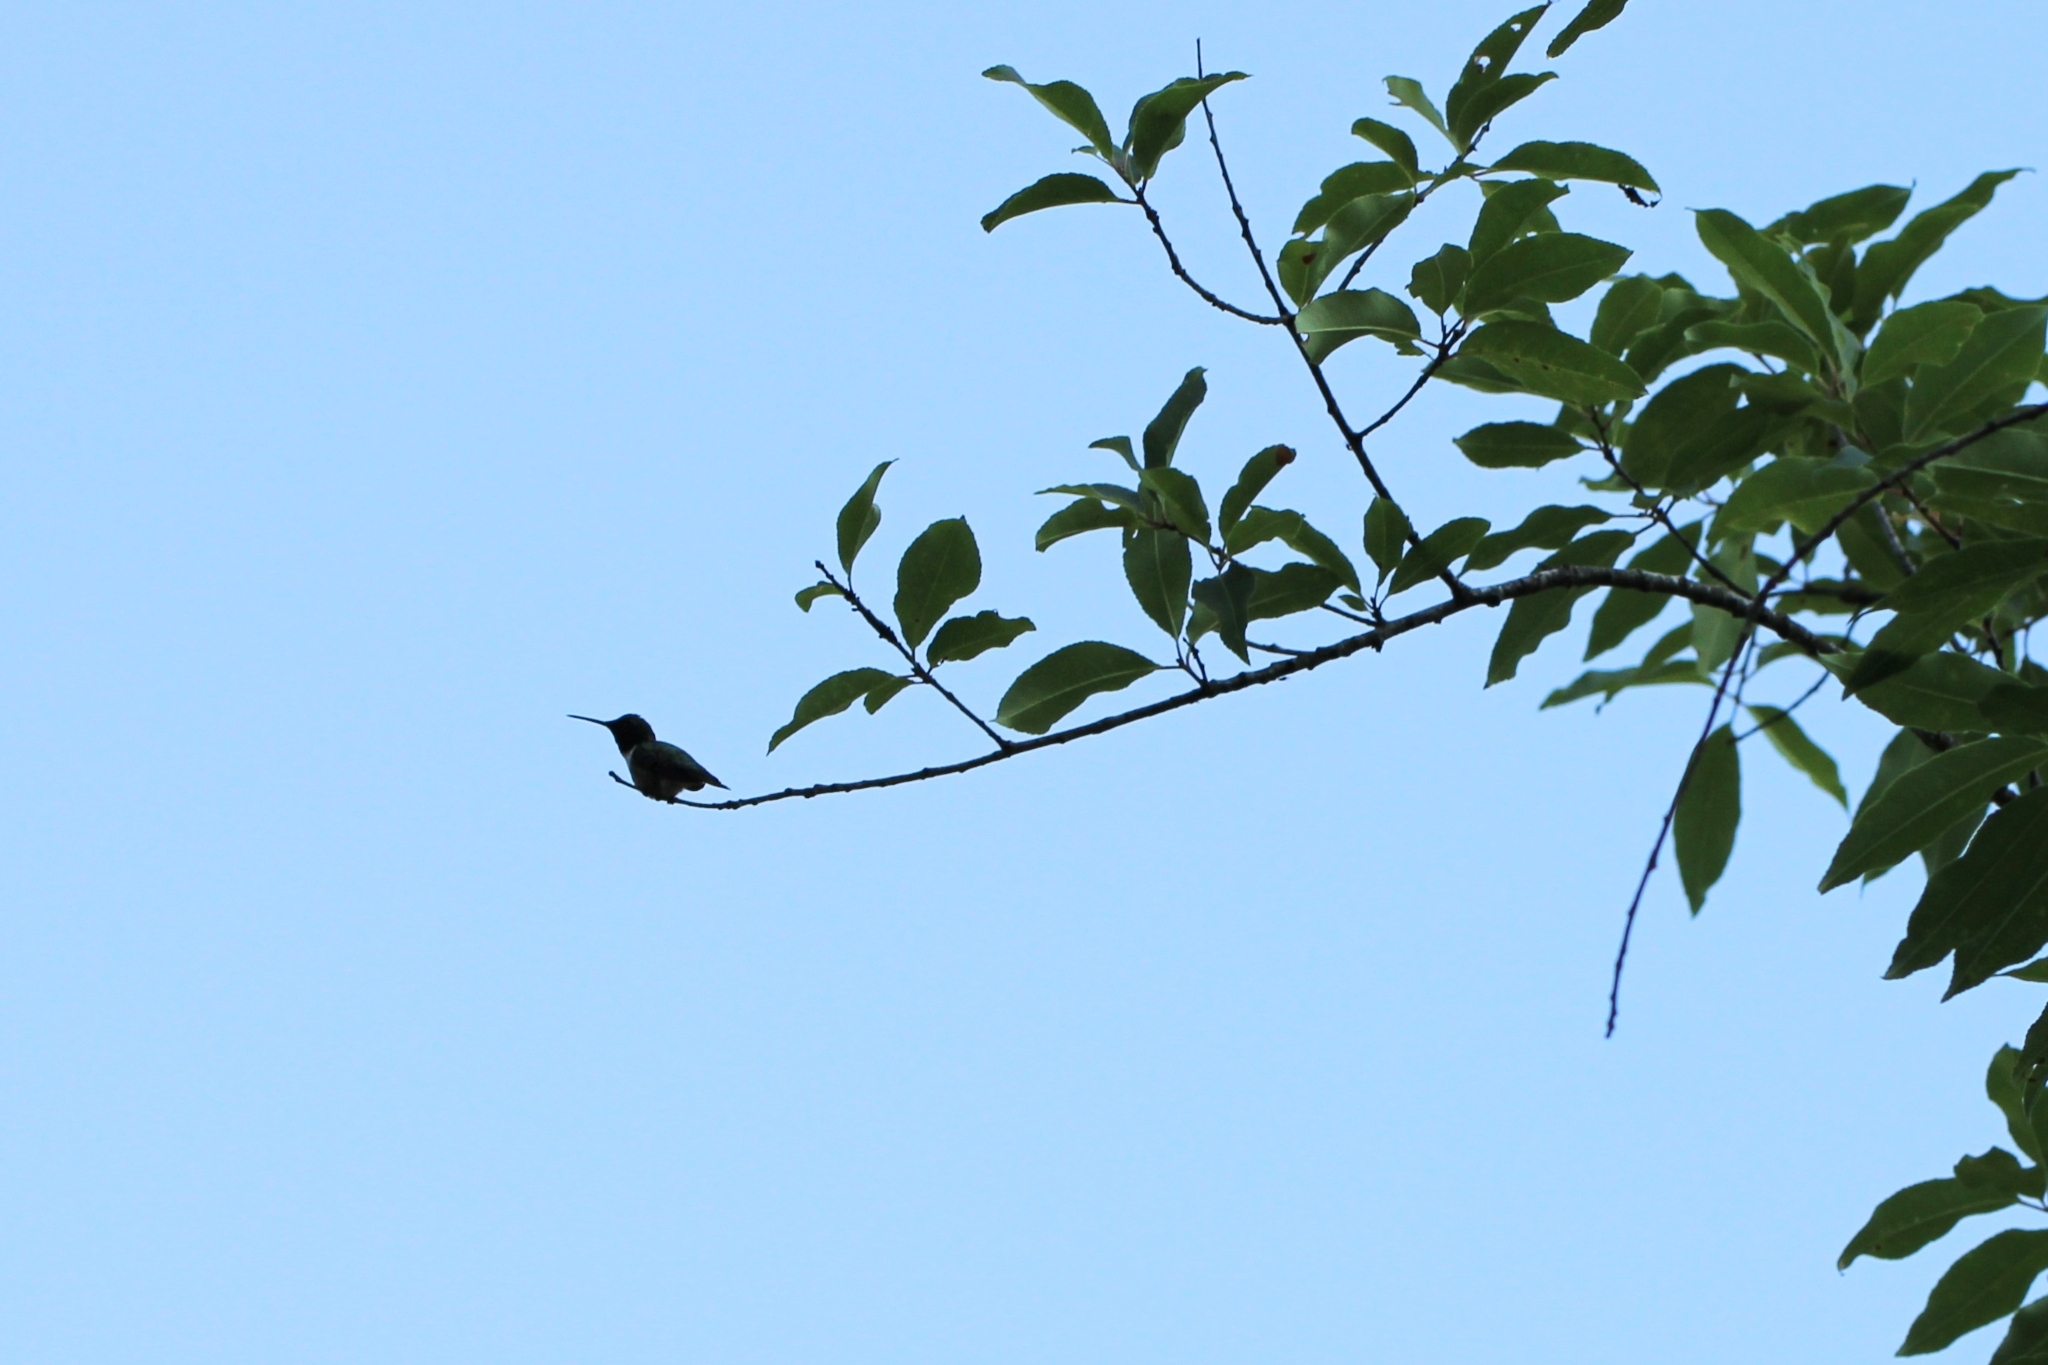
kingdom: Animalia
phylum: Chordata
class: Aves
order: Apodiformes
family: Trochilidae
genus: Archilochus
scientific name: Archilochus colubris
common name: Ruby-throated hummingbird
